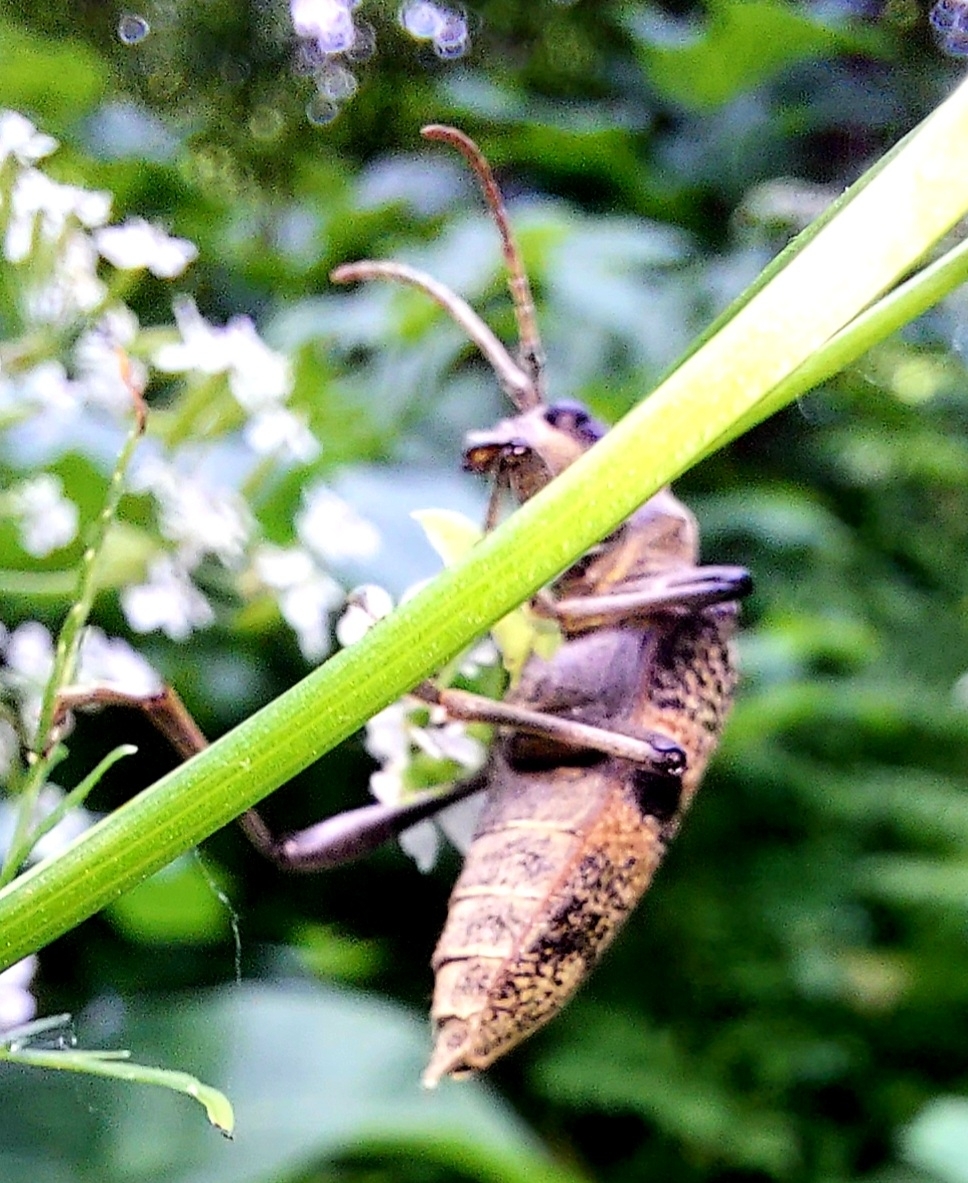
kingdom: Animalia
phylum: Arthropoda
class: Insecta
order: Coleoptera
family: Cerambycidae
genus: Rhagium
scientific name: Rhagium mordax
